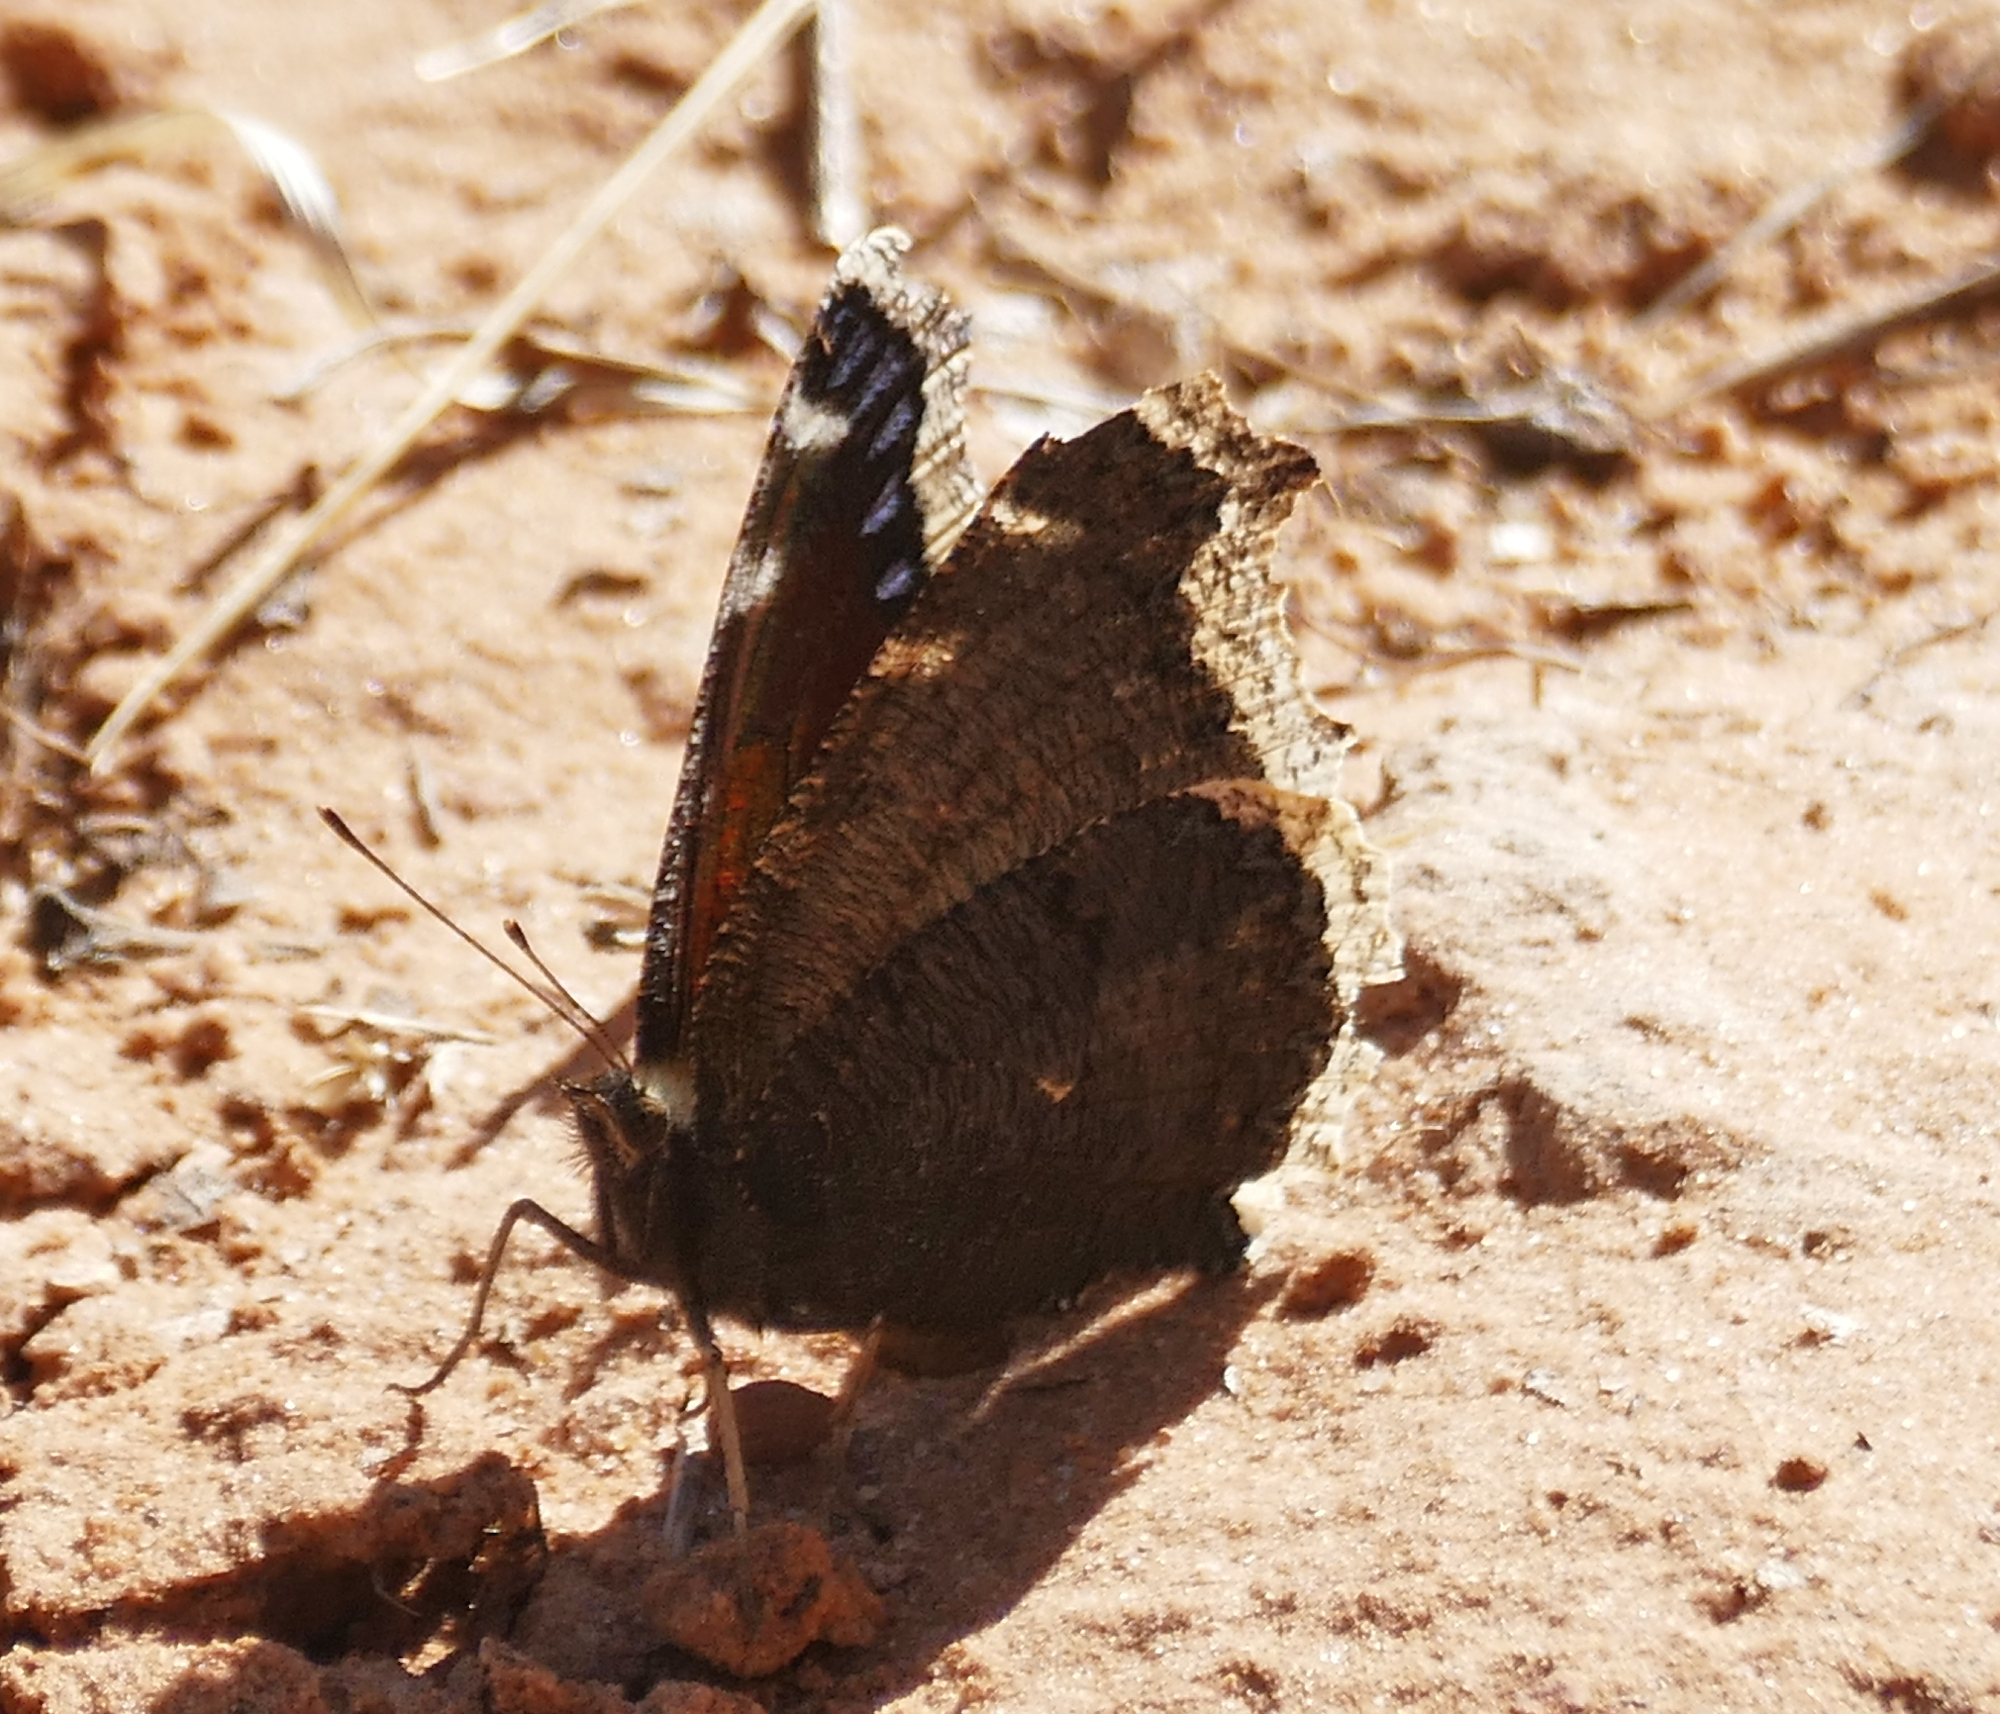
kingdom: Animalia
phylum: Arthropoda
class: Insecta
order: Lepidoptera
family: Nymphalidae
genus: Nymphalis
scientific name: Nymphalis antiopa
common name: Camberwell beauty
